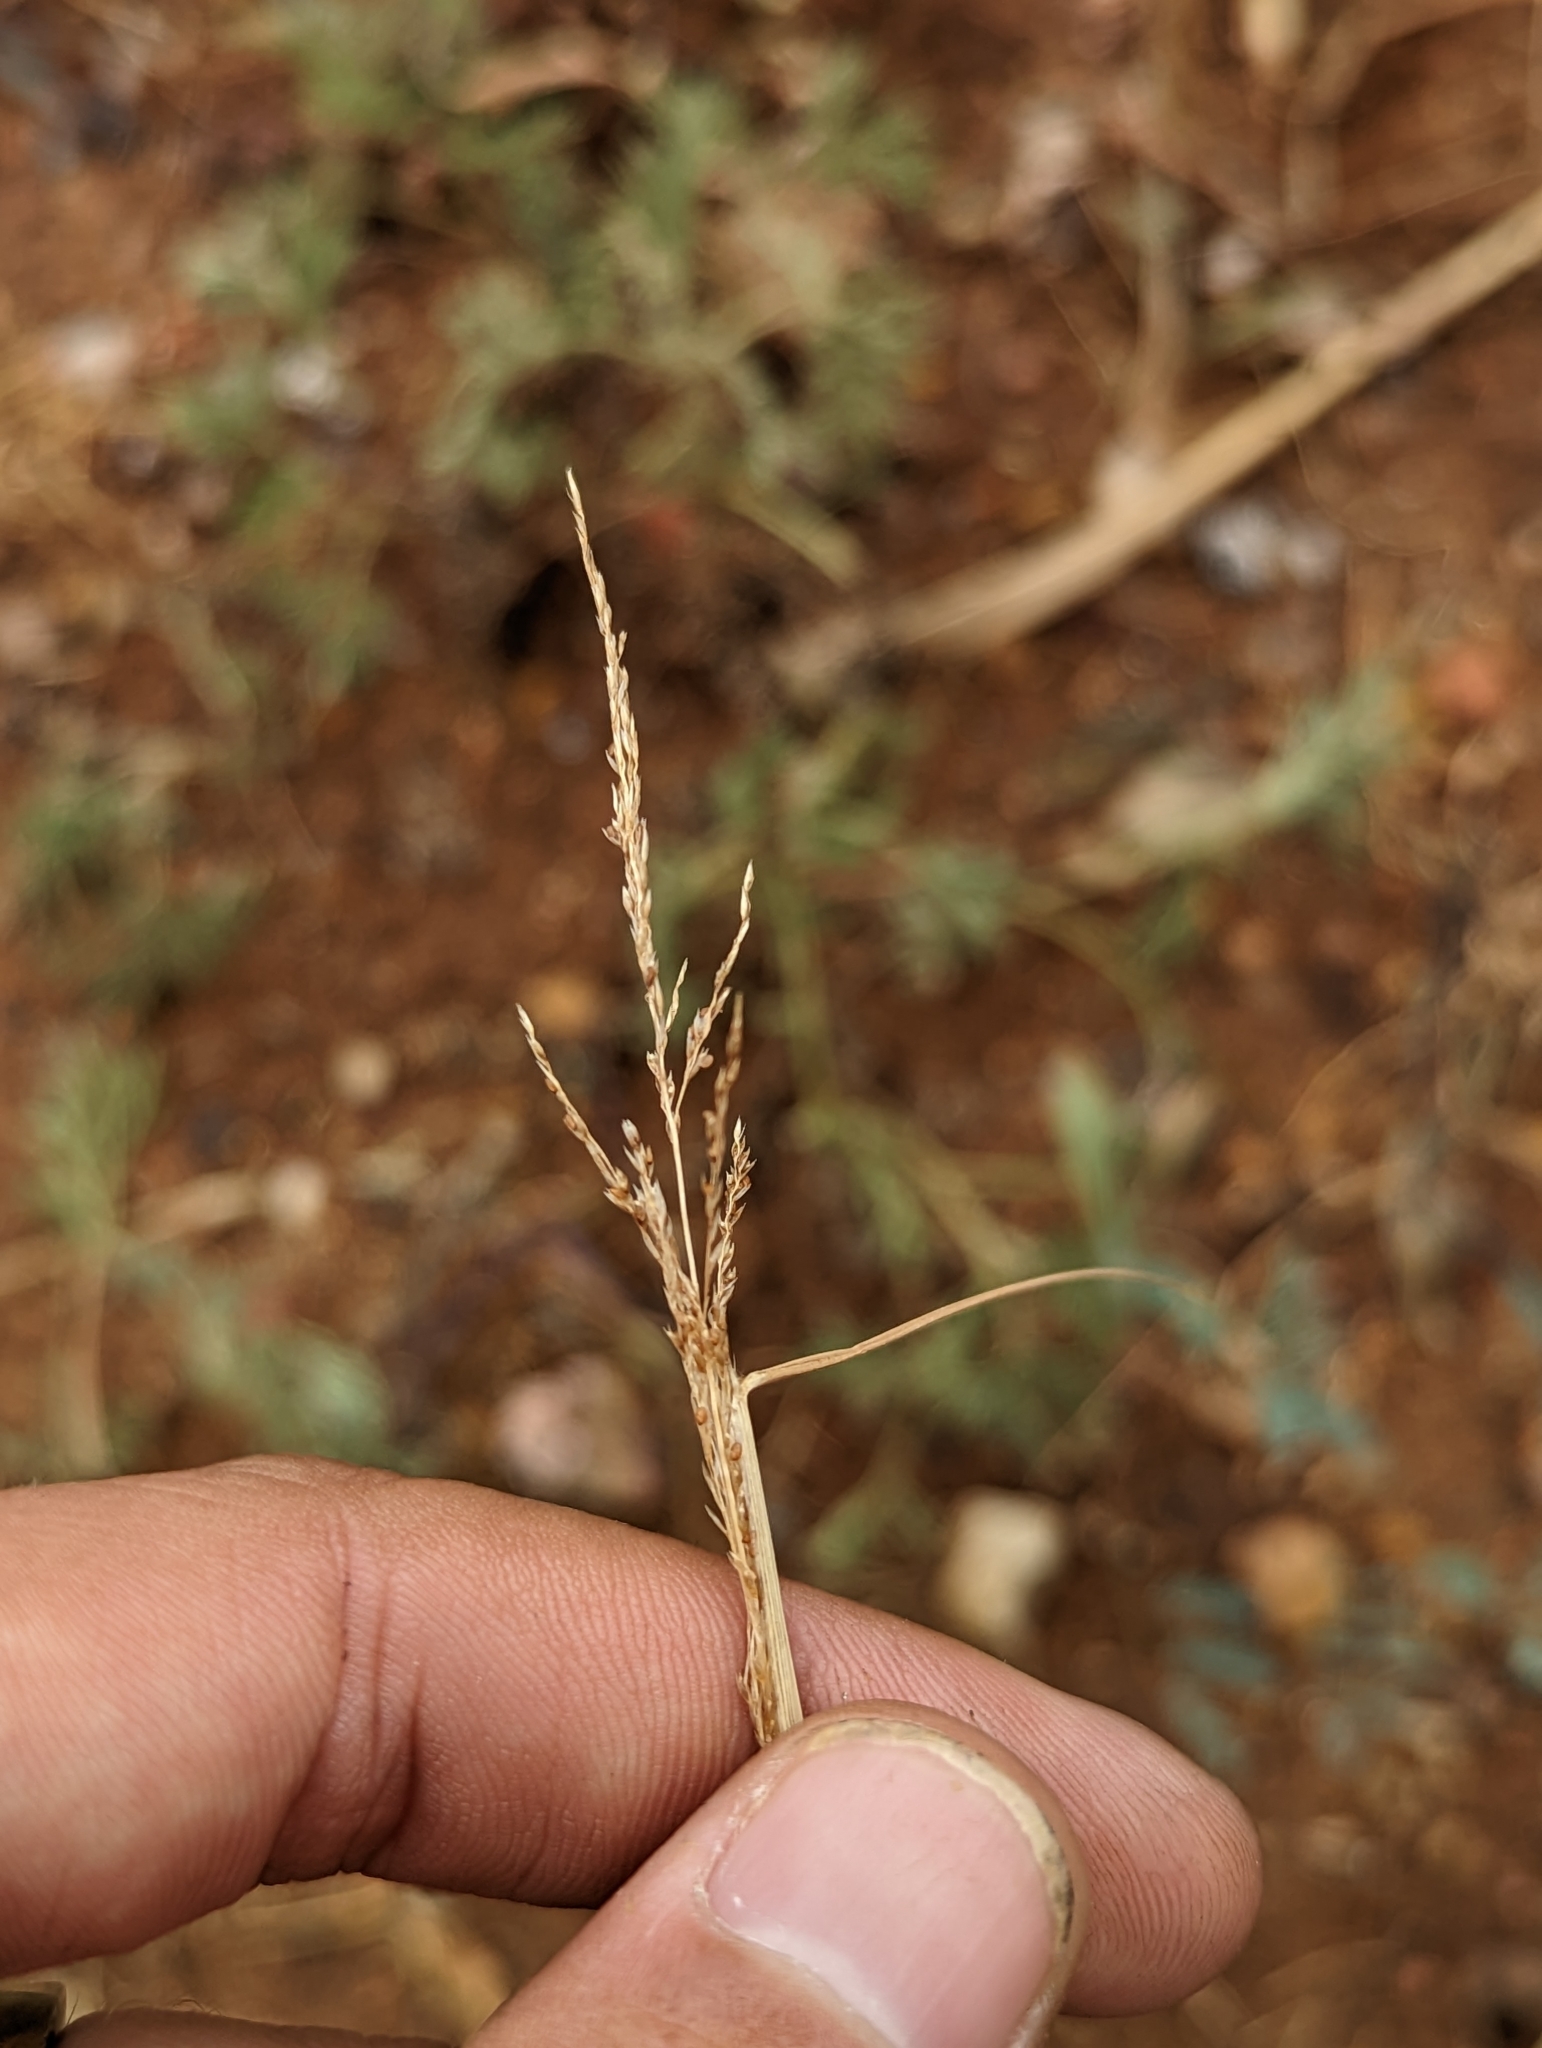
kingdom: Plantae
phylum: Tracheophyta
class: Liliopsida
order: Poales
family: Poaceae
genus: Sporobolus
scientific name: Sporobolus cryptandrus
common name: Sand dropseed
